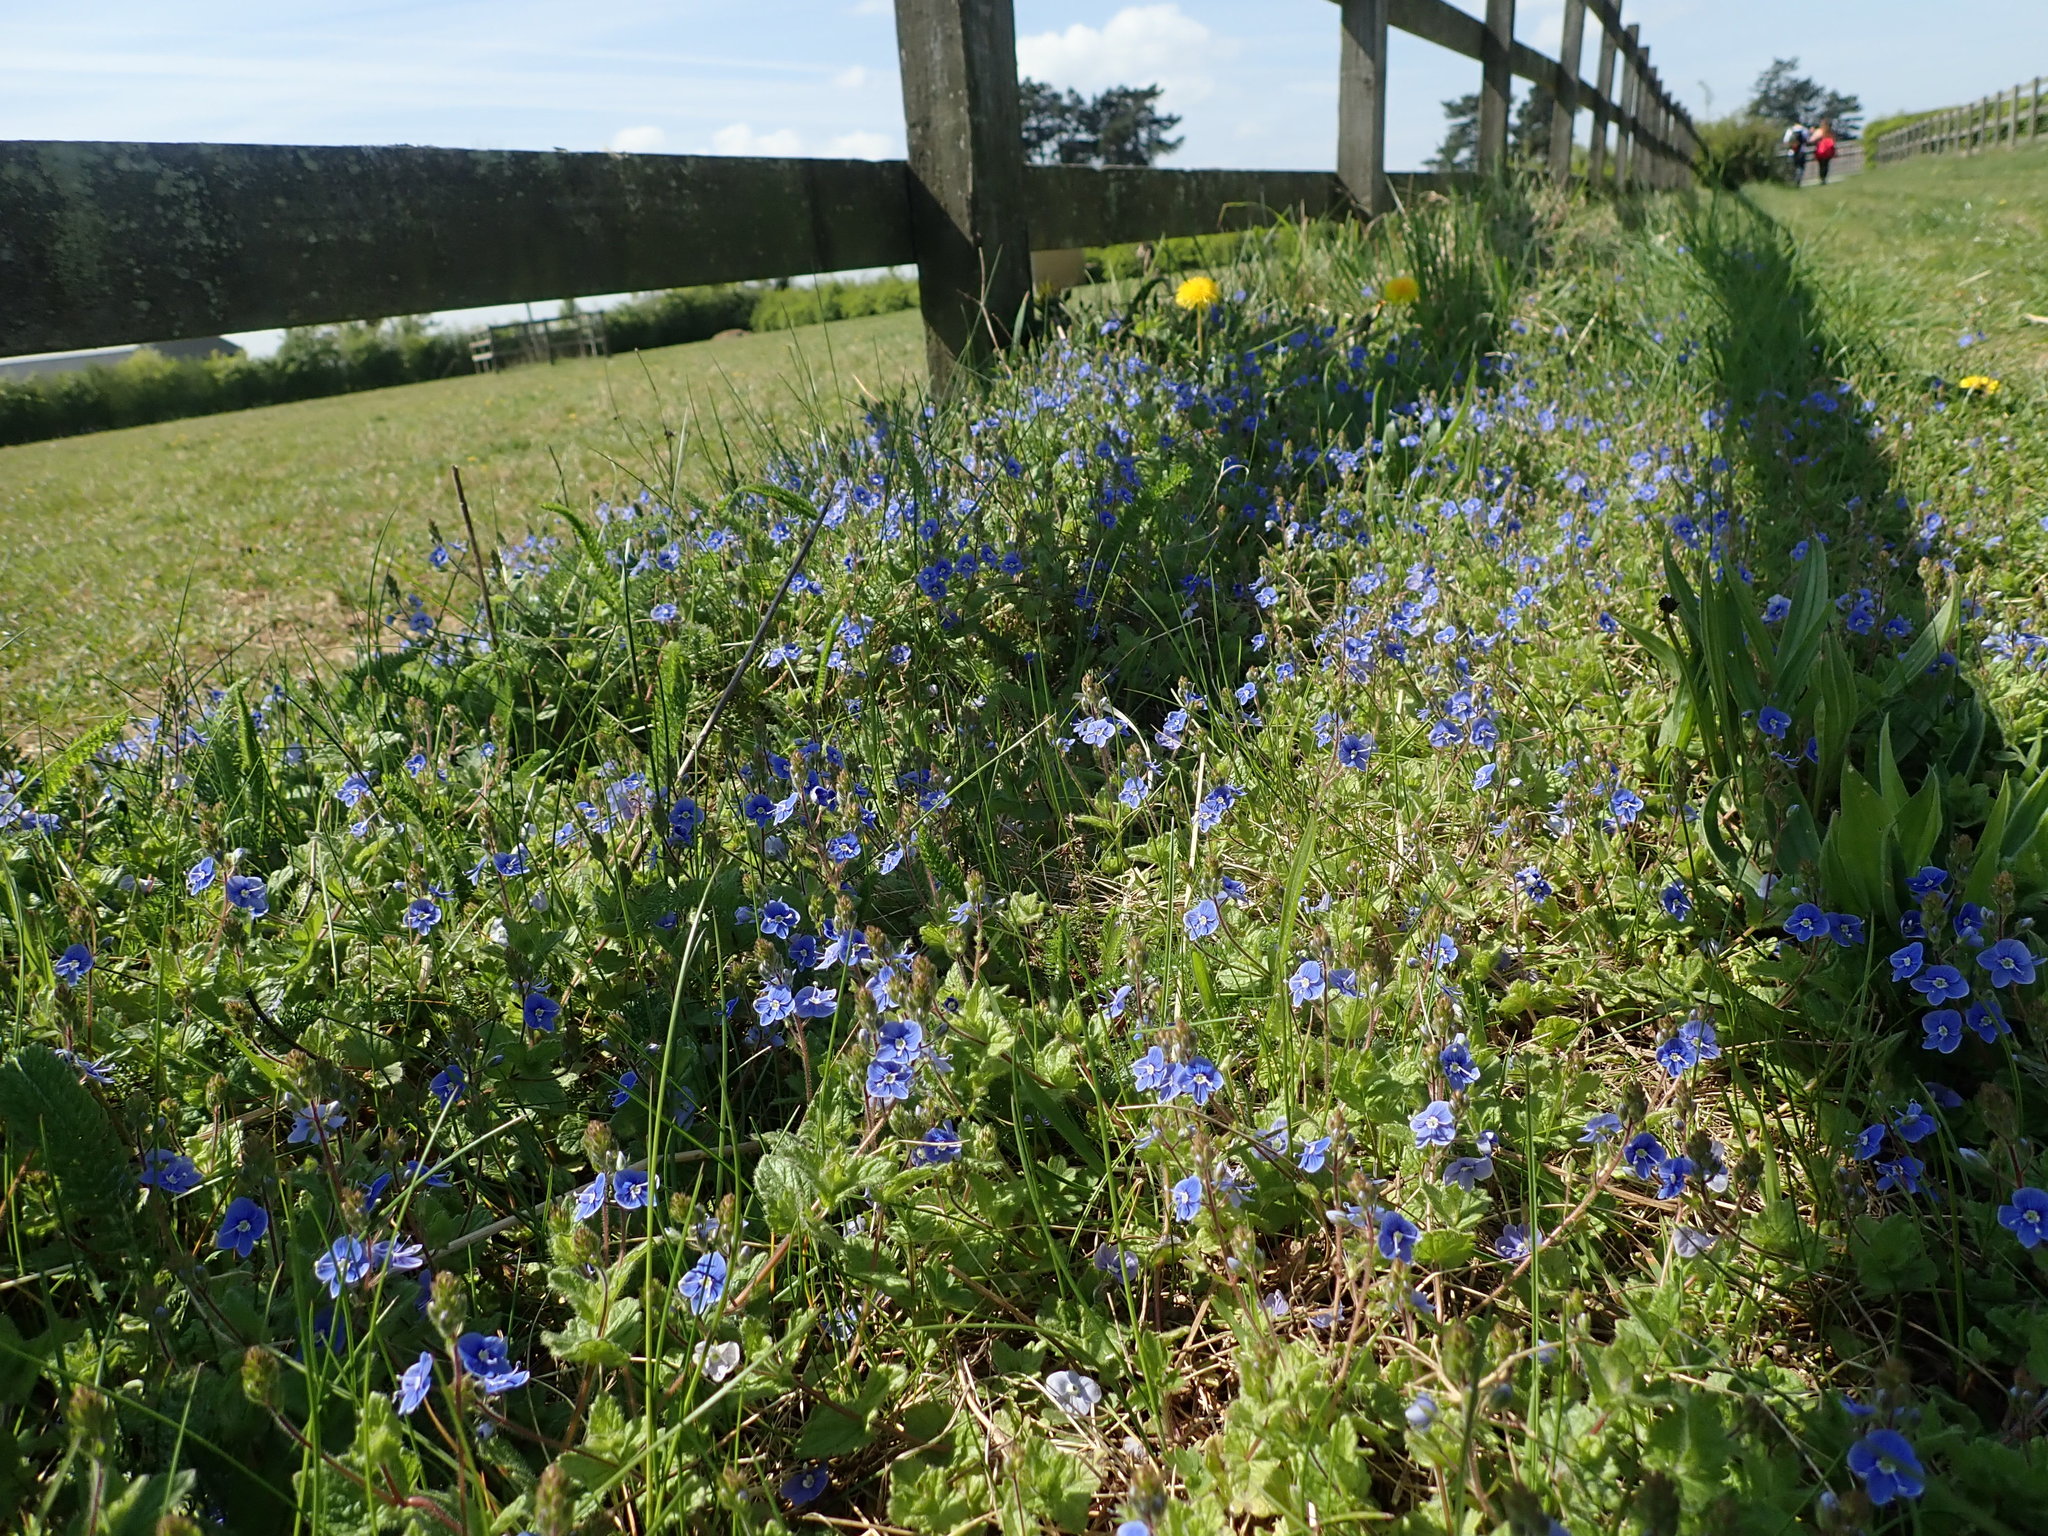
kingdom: Plantae
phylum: Tracheophyta
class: Magnoliopsida
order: Lamiales
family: Plantaginaceae
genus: Veronica
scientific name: Veronica chamaedrys
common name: Germander speedwell
